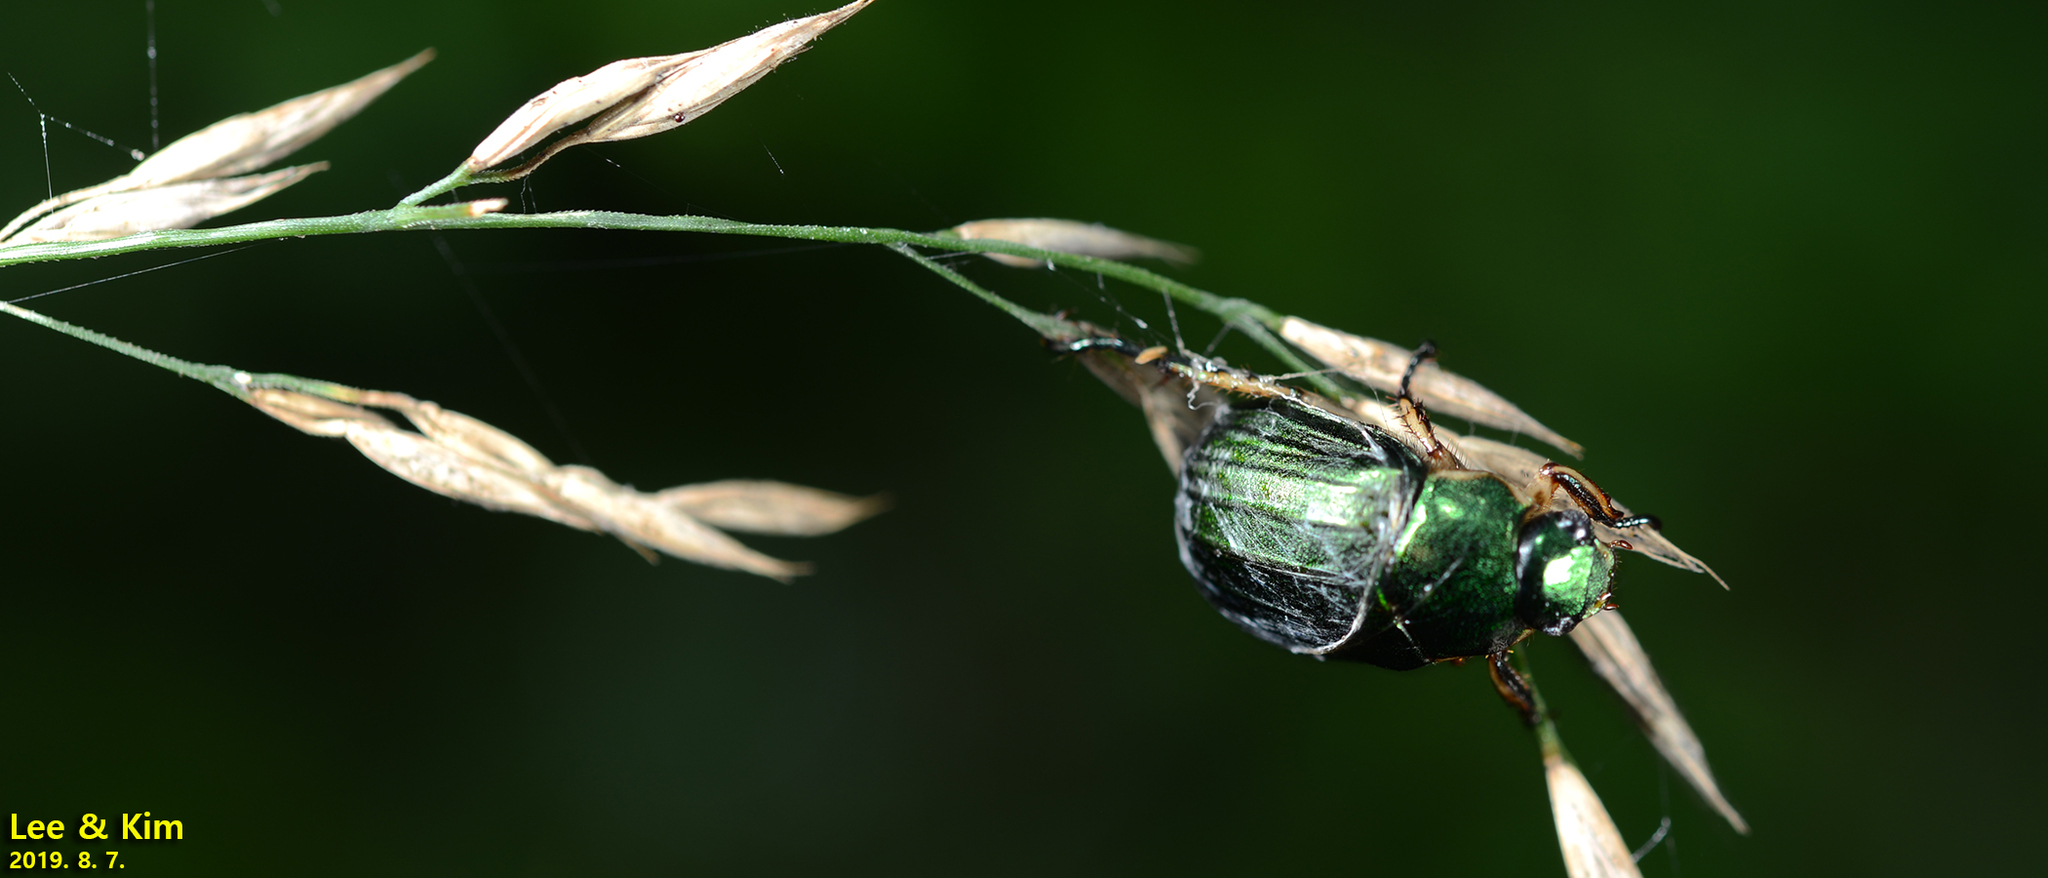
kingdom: Animalia
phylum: Arthropoda
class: Insecta
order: Coleoptera
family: Scarabaeidae
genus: Mimela
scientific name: Mimela testaceipes
